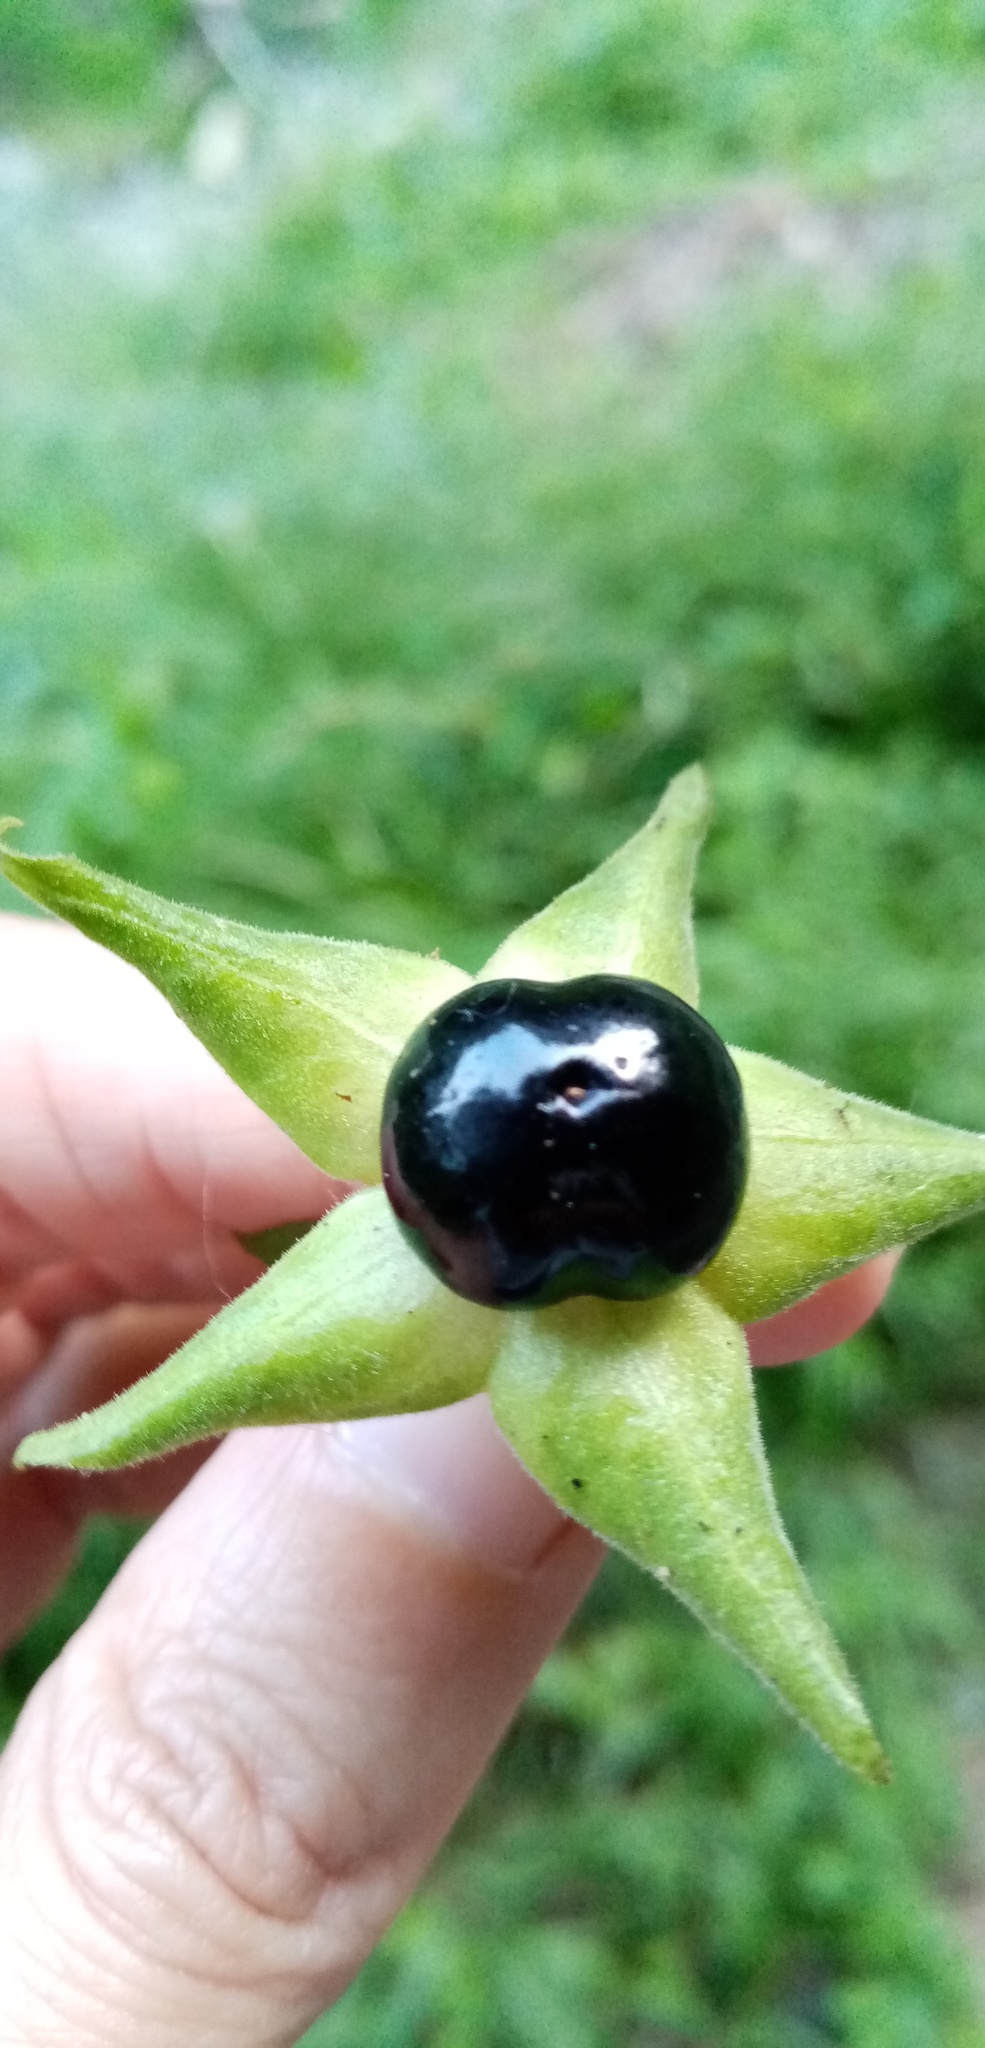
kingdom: Plantae
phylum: Tracheophyta
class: Magnoliopsida
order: Solanales
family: Solanaceae
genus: Atropa
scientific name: Atropa belladonna
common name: Deadly nightshade
